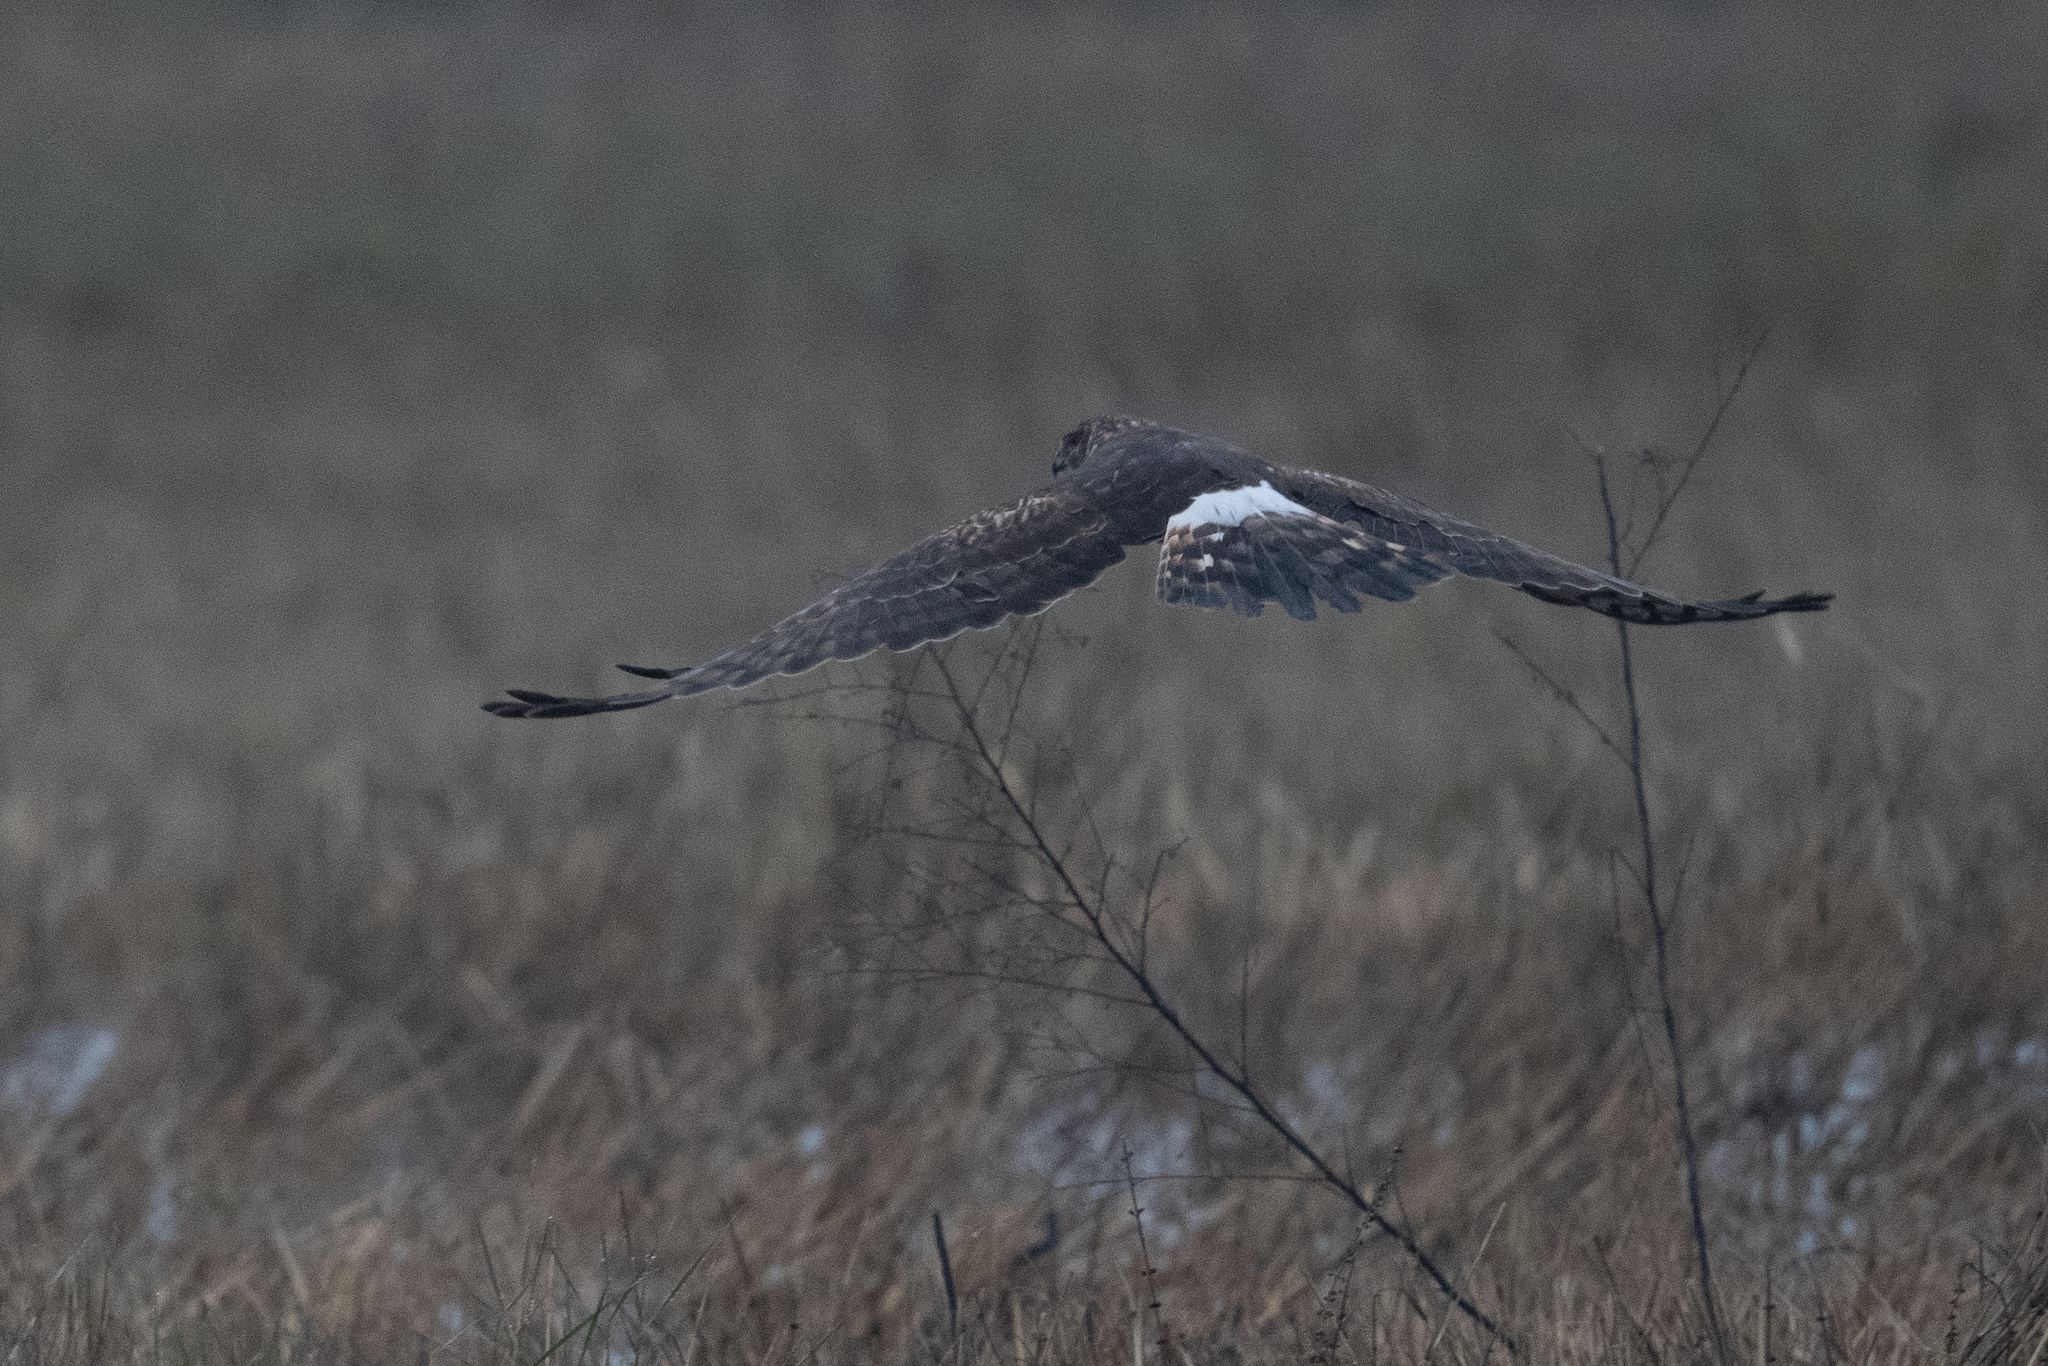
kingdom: Animalia
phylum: Chordata
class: Aves
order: Accipitriformes
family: Accipitridae
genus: Circus
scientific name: Circus cyaneus
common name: Hen harrier
